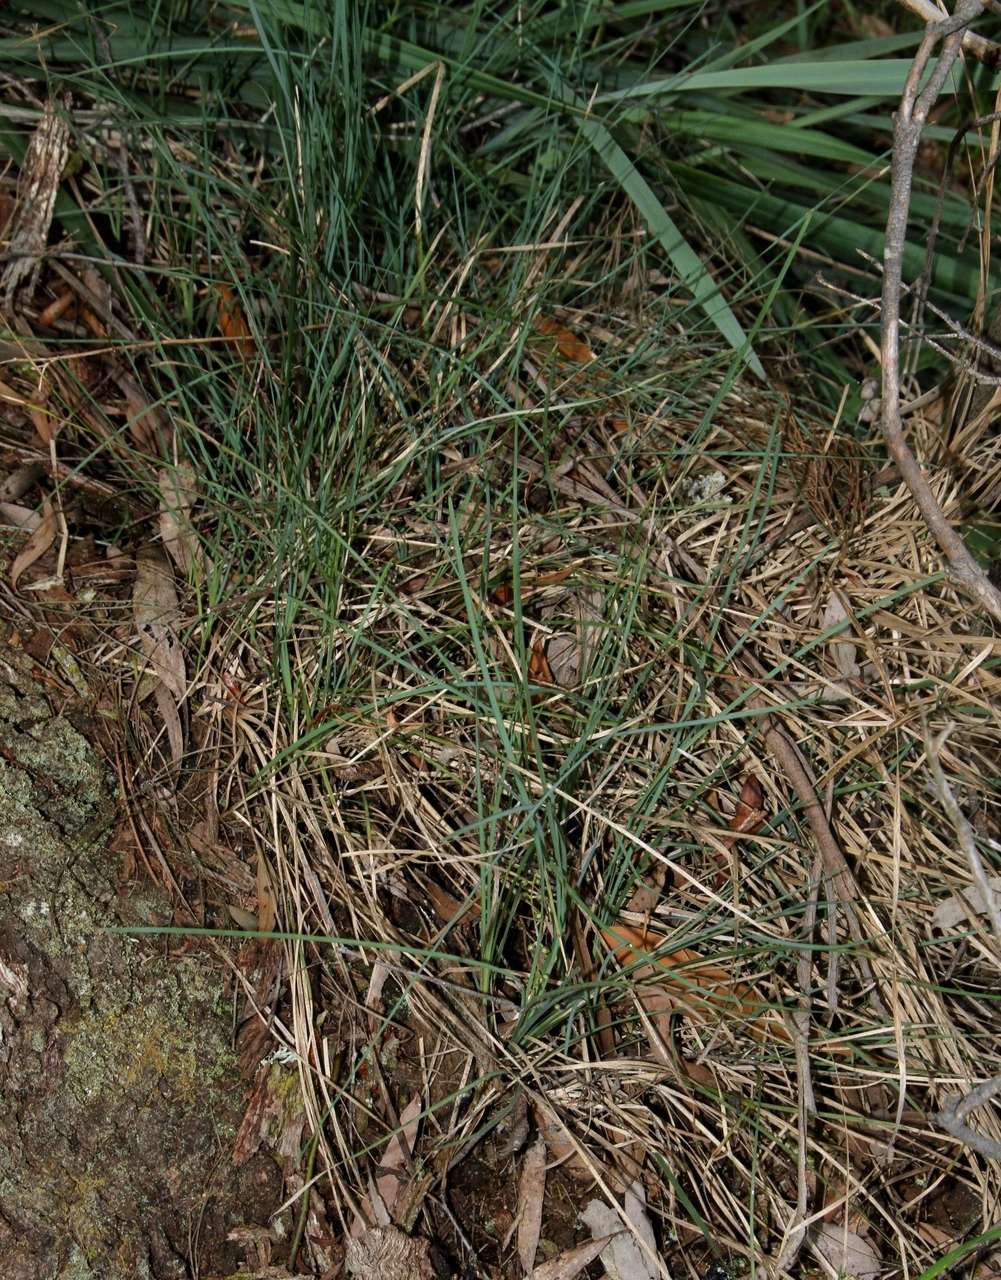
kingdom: Plantae
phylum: Tracheophyta
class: Liliopsida
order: Asparagales
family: Asparagaceae
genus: Lomandra
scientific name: Lomandra filiformis
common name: Wattle mat-rush
